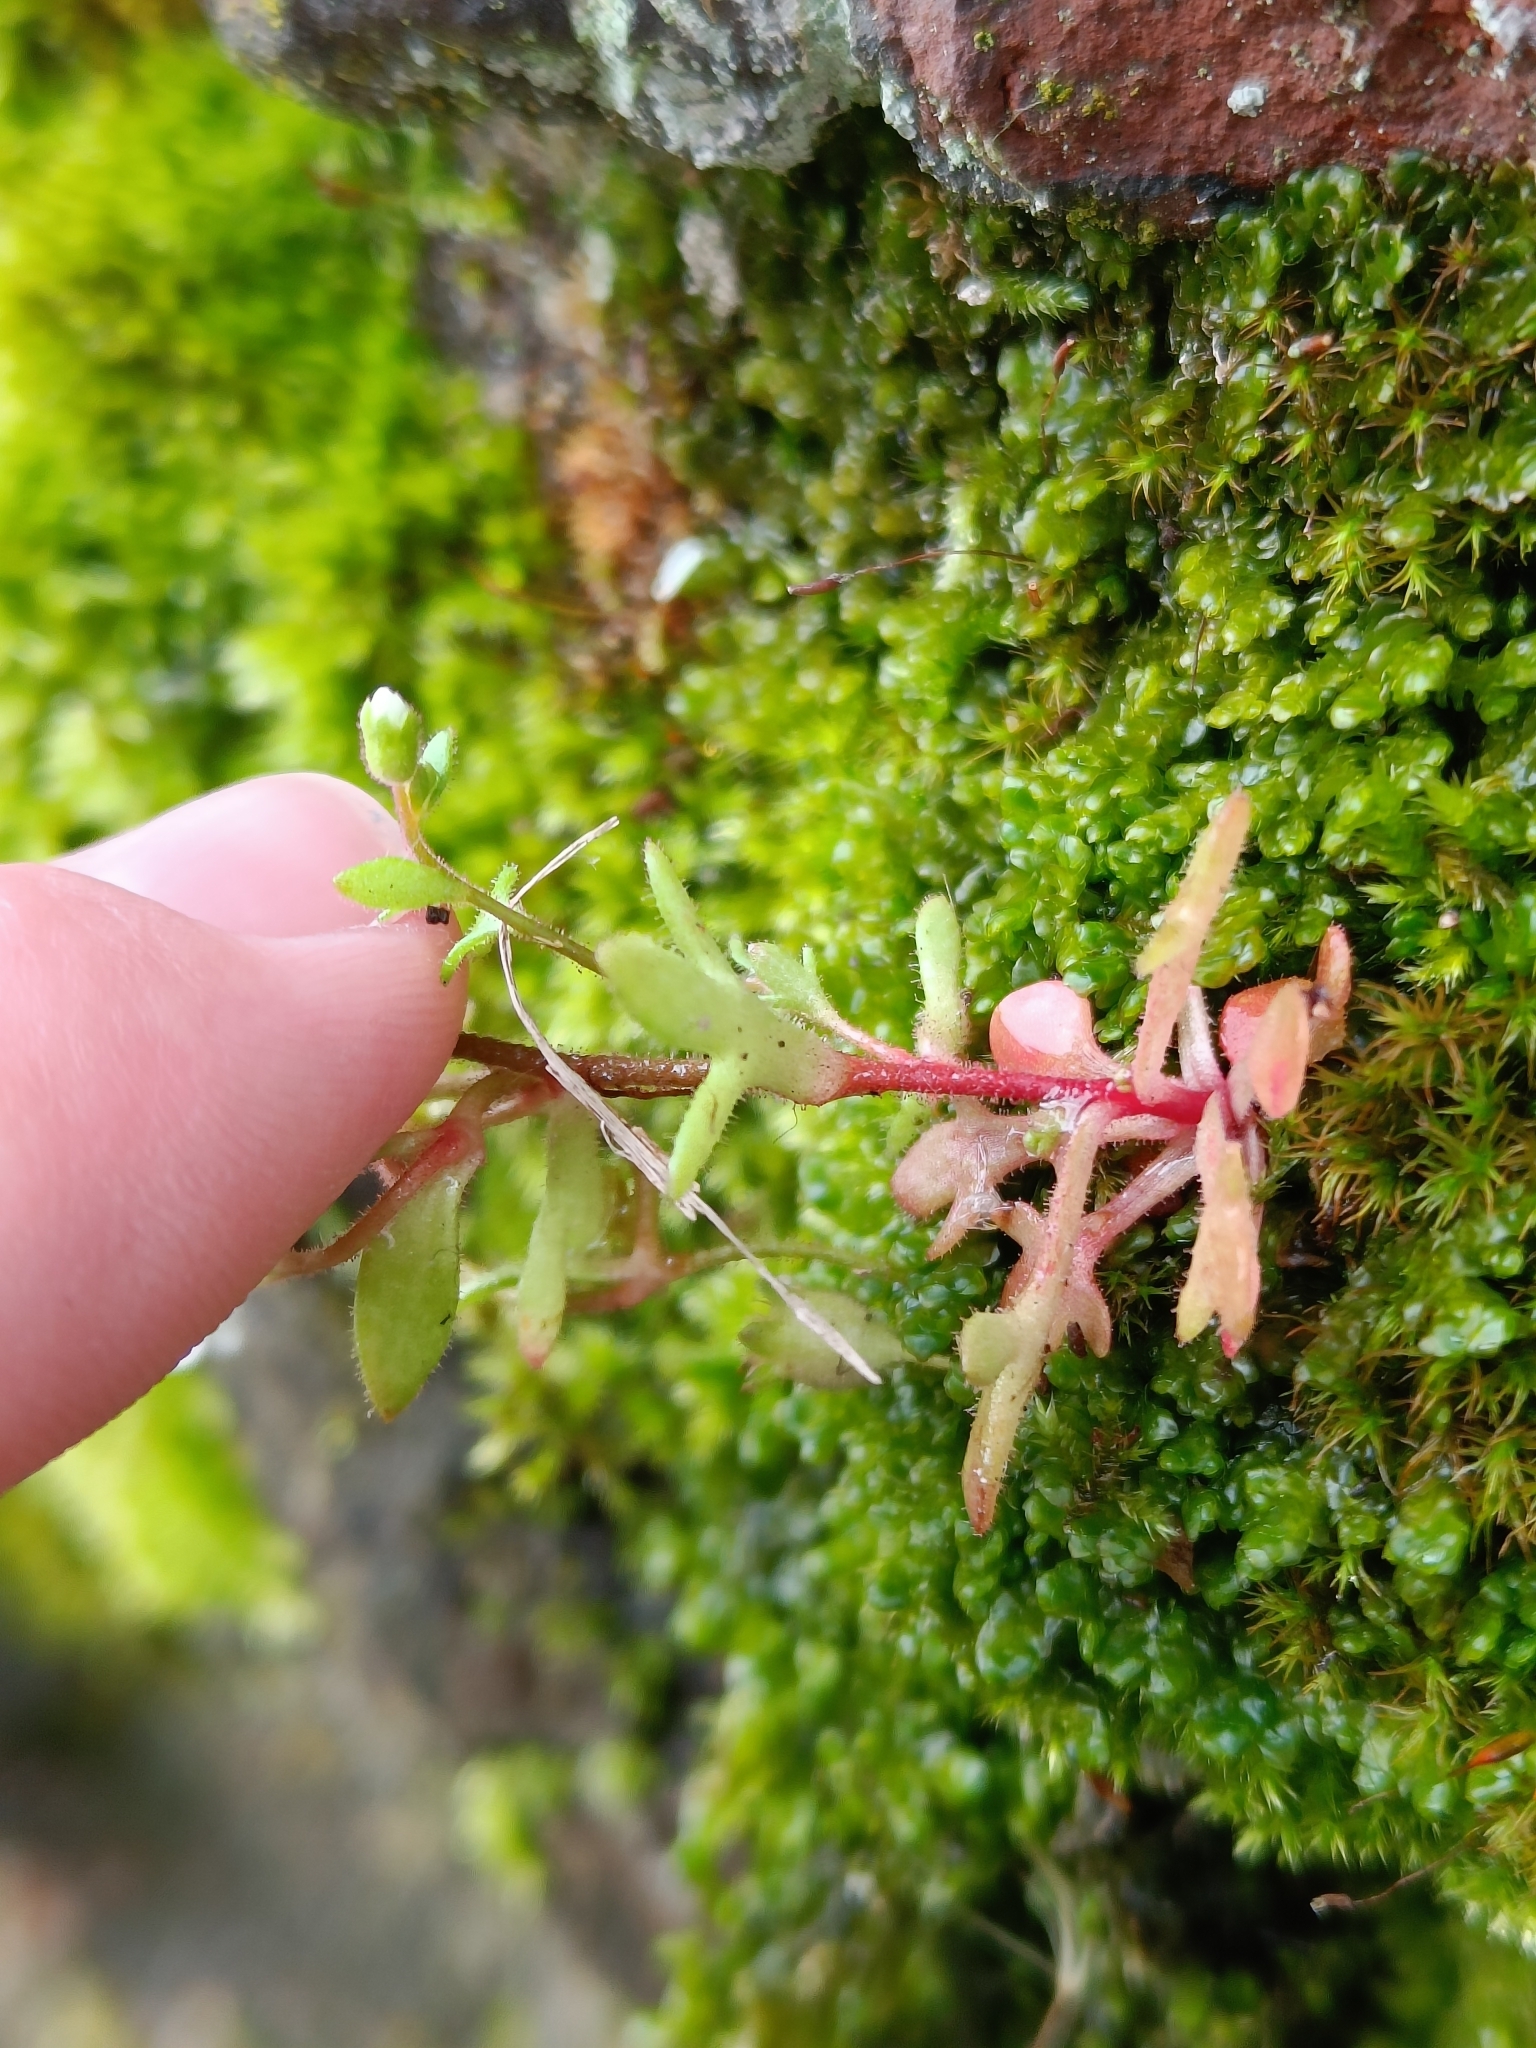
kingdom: Plantae
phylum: Tracheophyta
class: Magnoliopsida
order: Saxifragales
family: Saxifragaceae
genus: Saxifraga
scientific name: Saxifraga tridactylites
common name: Rue-leaved saxifrage
